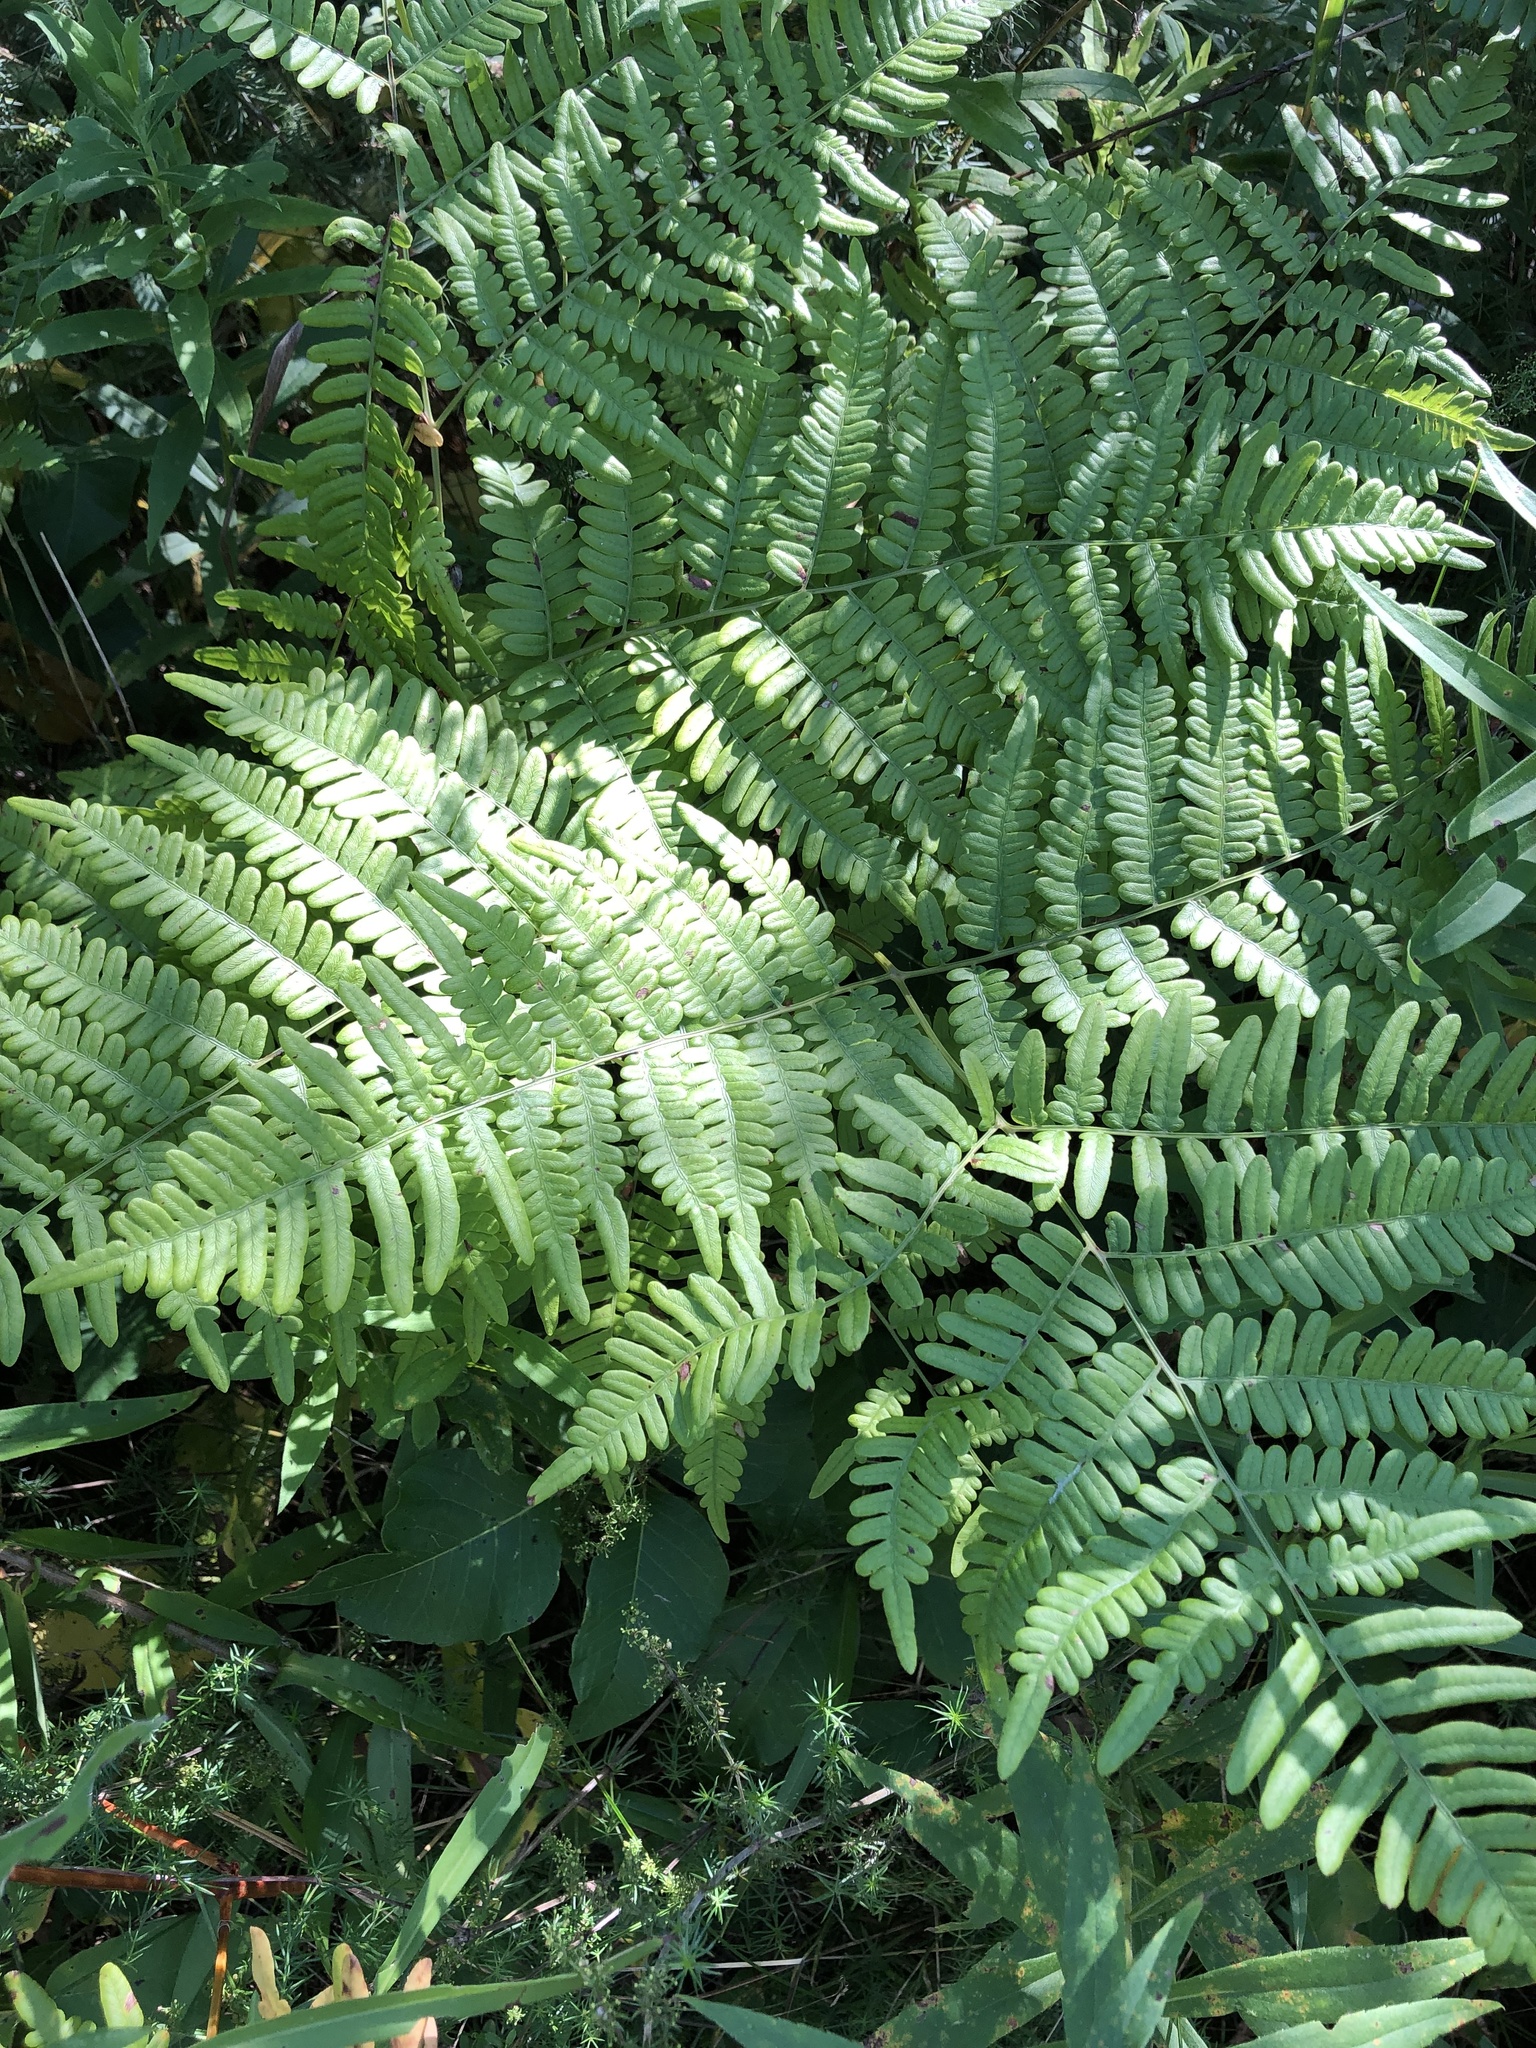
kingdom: Plantae
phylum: Tracheophyta
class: Polypodiopsida
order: Polypodiales
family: Dennstaedtiaceae
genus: Pteridium
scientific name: Pteridium aquilinum
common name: Bracken
